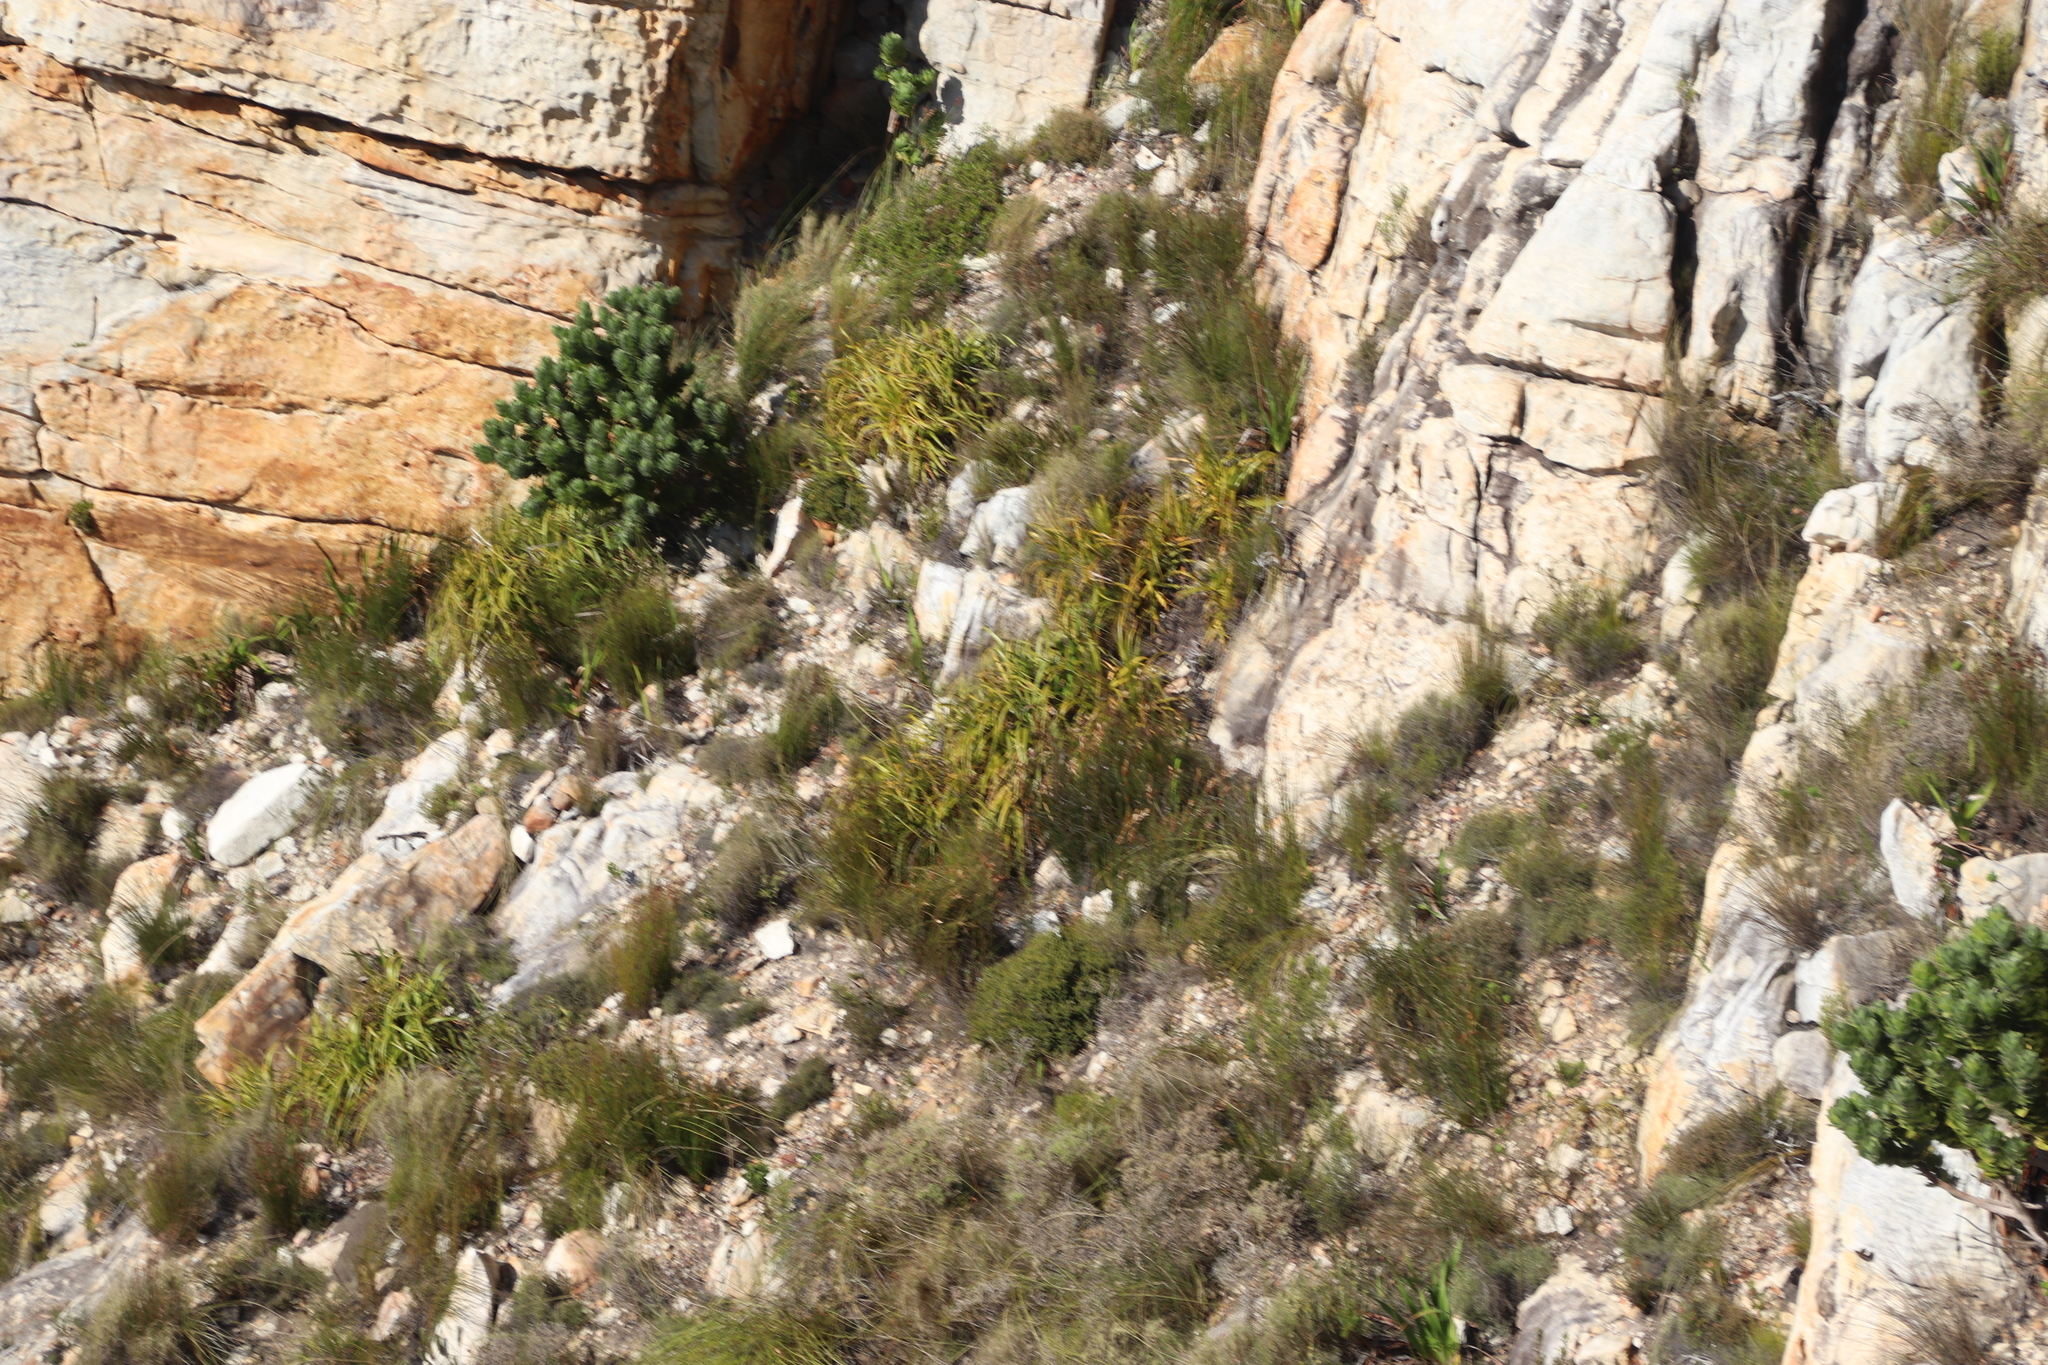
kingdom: Plantae
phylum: Tracheophyta
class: Liliopsida
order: Poales
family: Cyperaceae
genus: Tetraria
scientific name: Tetraria thermalis
